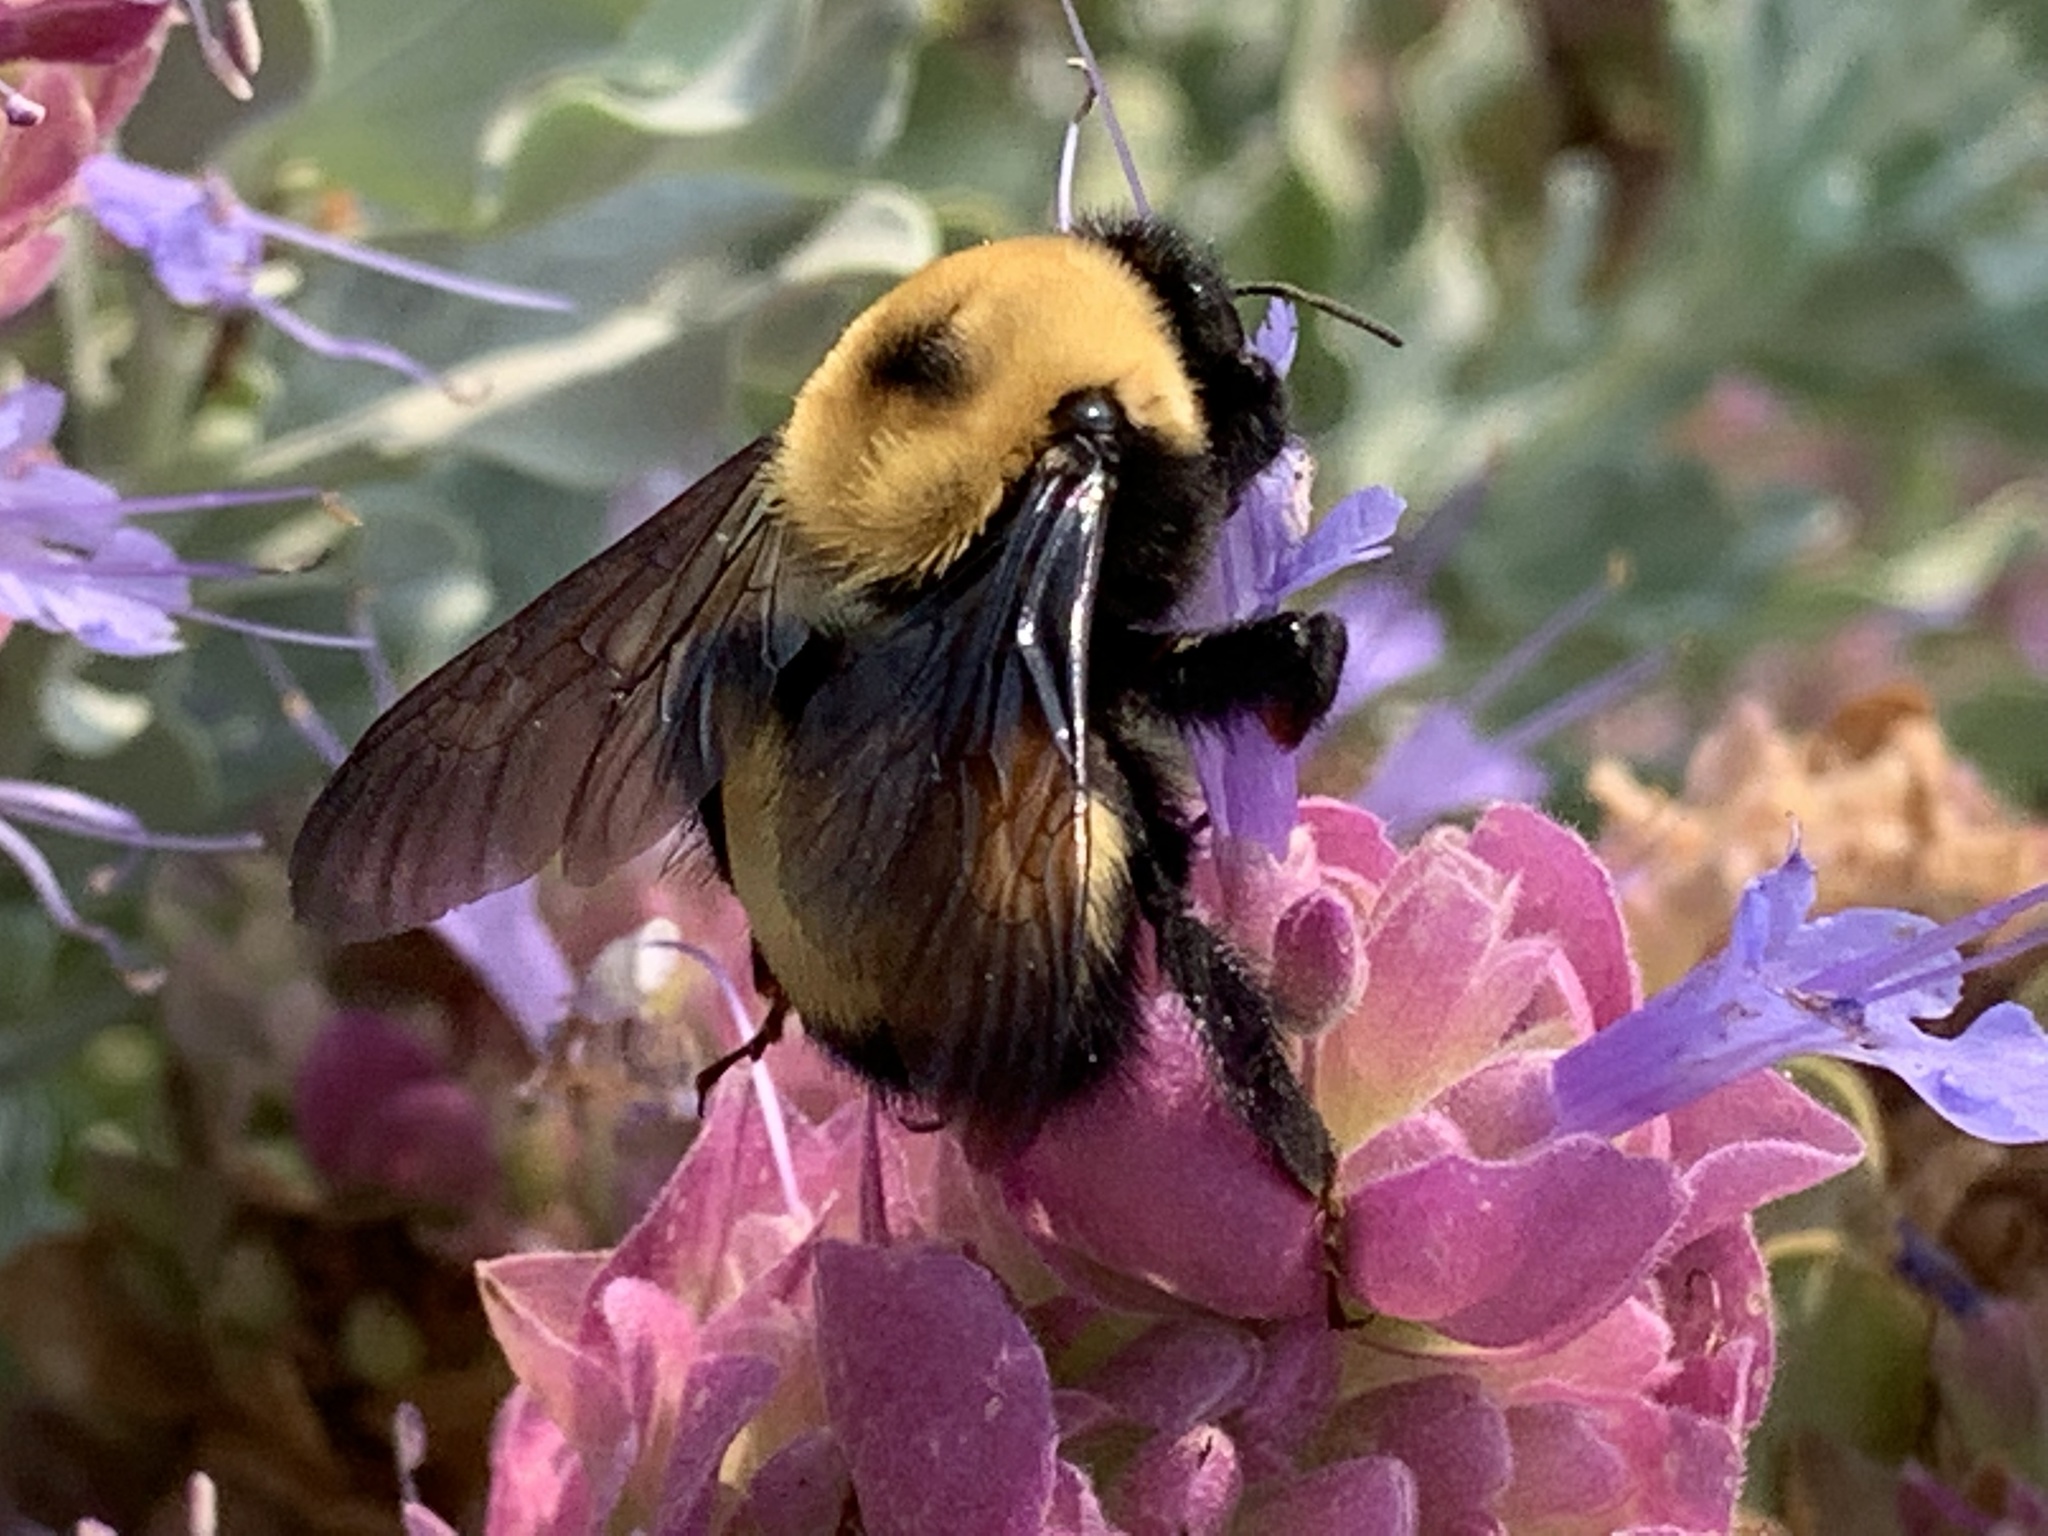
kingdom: Animalia
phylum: Arthropoda
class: Insecta
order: Hymenoptera
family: Apidae
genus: Bombus
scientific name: Bombus nevadensis
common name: Nevada bumble bee
